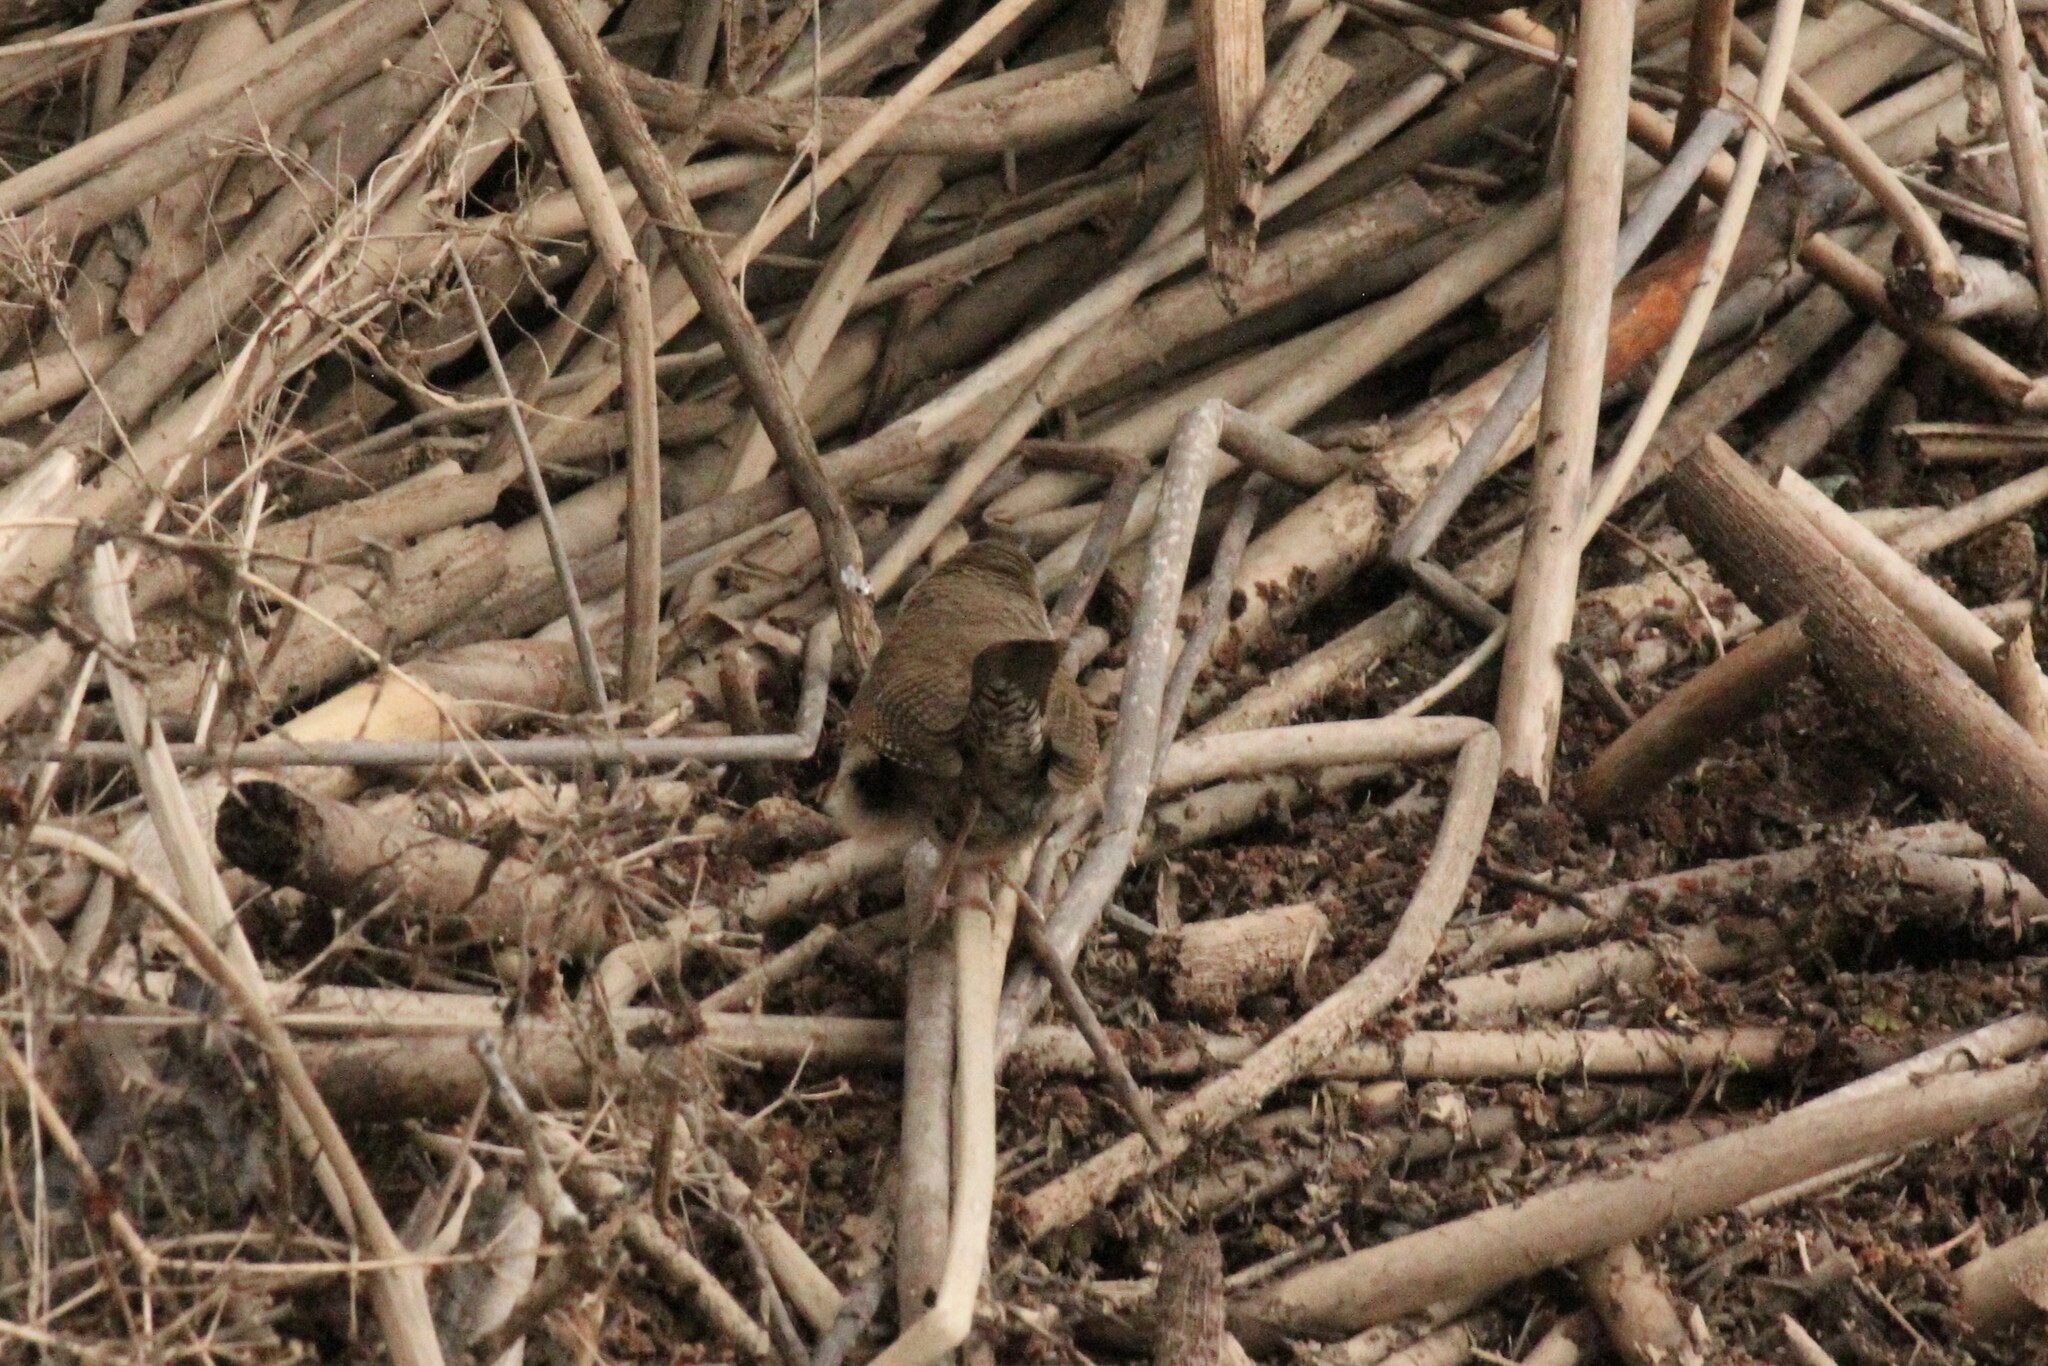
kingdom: Animalia
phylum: Chordata
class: Aves
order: Passeriformes
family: Troglodytidae
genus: Troglodytes
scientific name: Troglodytes aedon
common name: House wren
